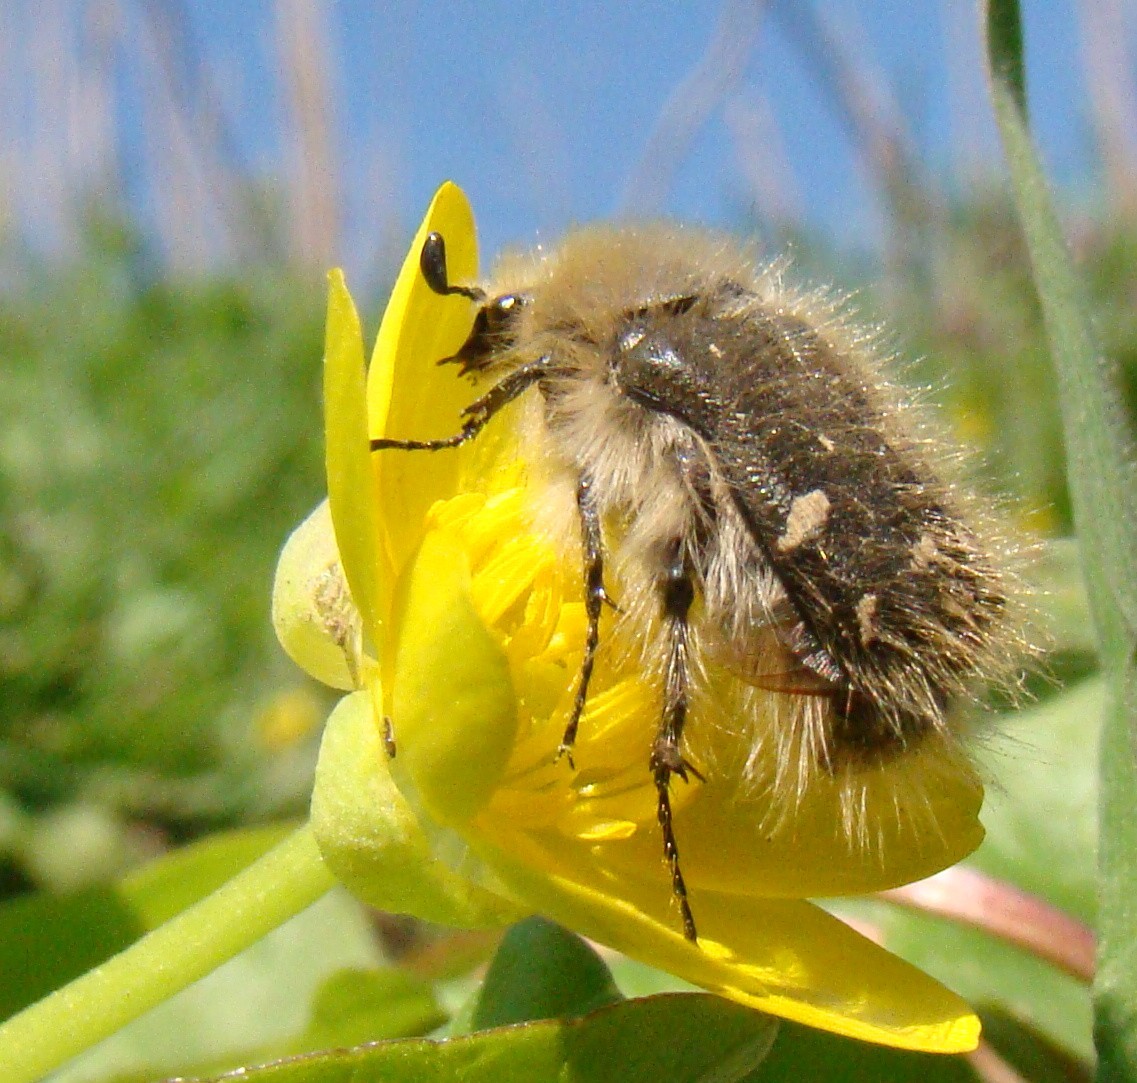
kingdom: Animalia
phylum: Arthropoda
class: Insecta
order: Coleoptera
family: Scarabaeidae
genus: Tropinota
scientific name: Tropinota hirta
